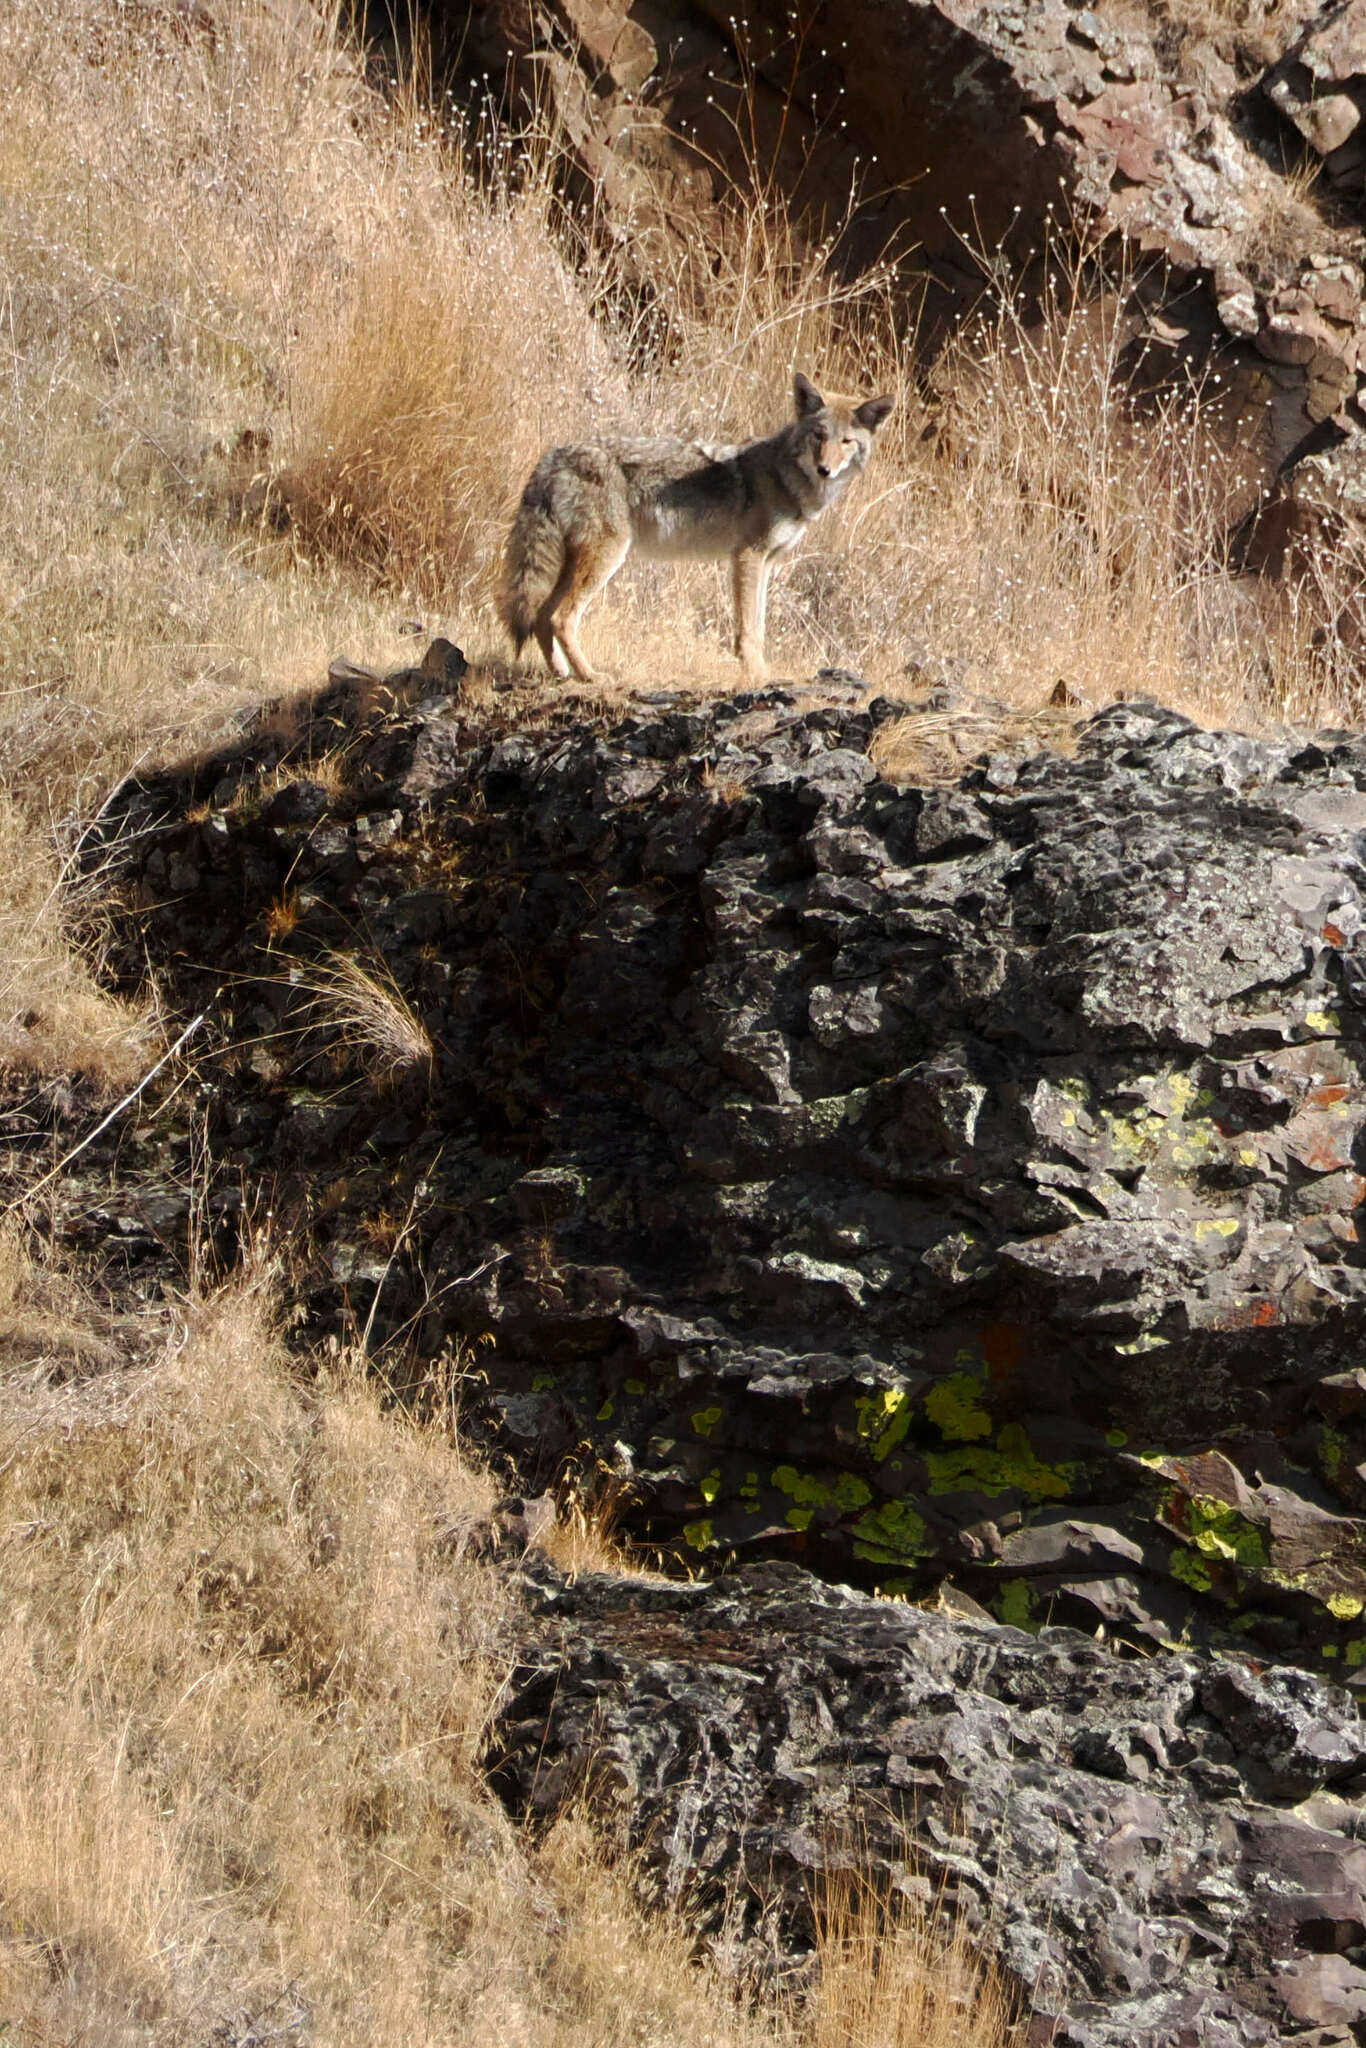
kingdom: Animalia
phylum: Chordata
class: Mammalia
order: Carnivora
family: Canidae
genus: Canis
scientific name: Canis latrans
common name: Coyote
